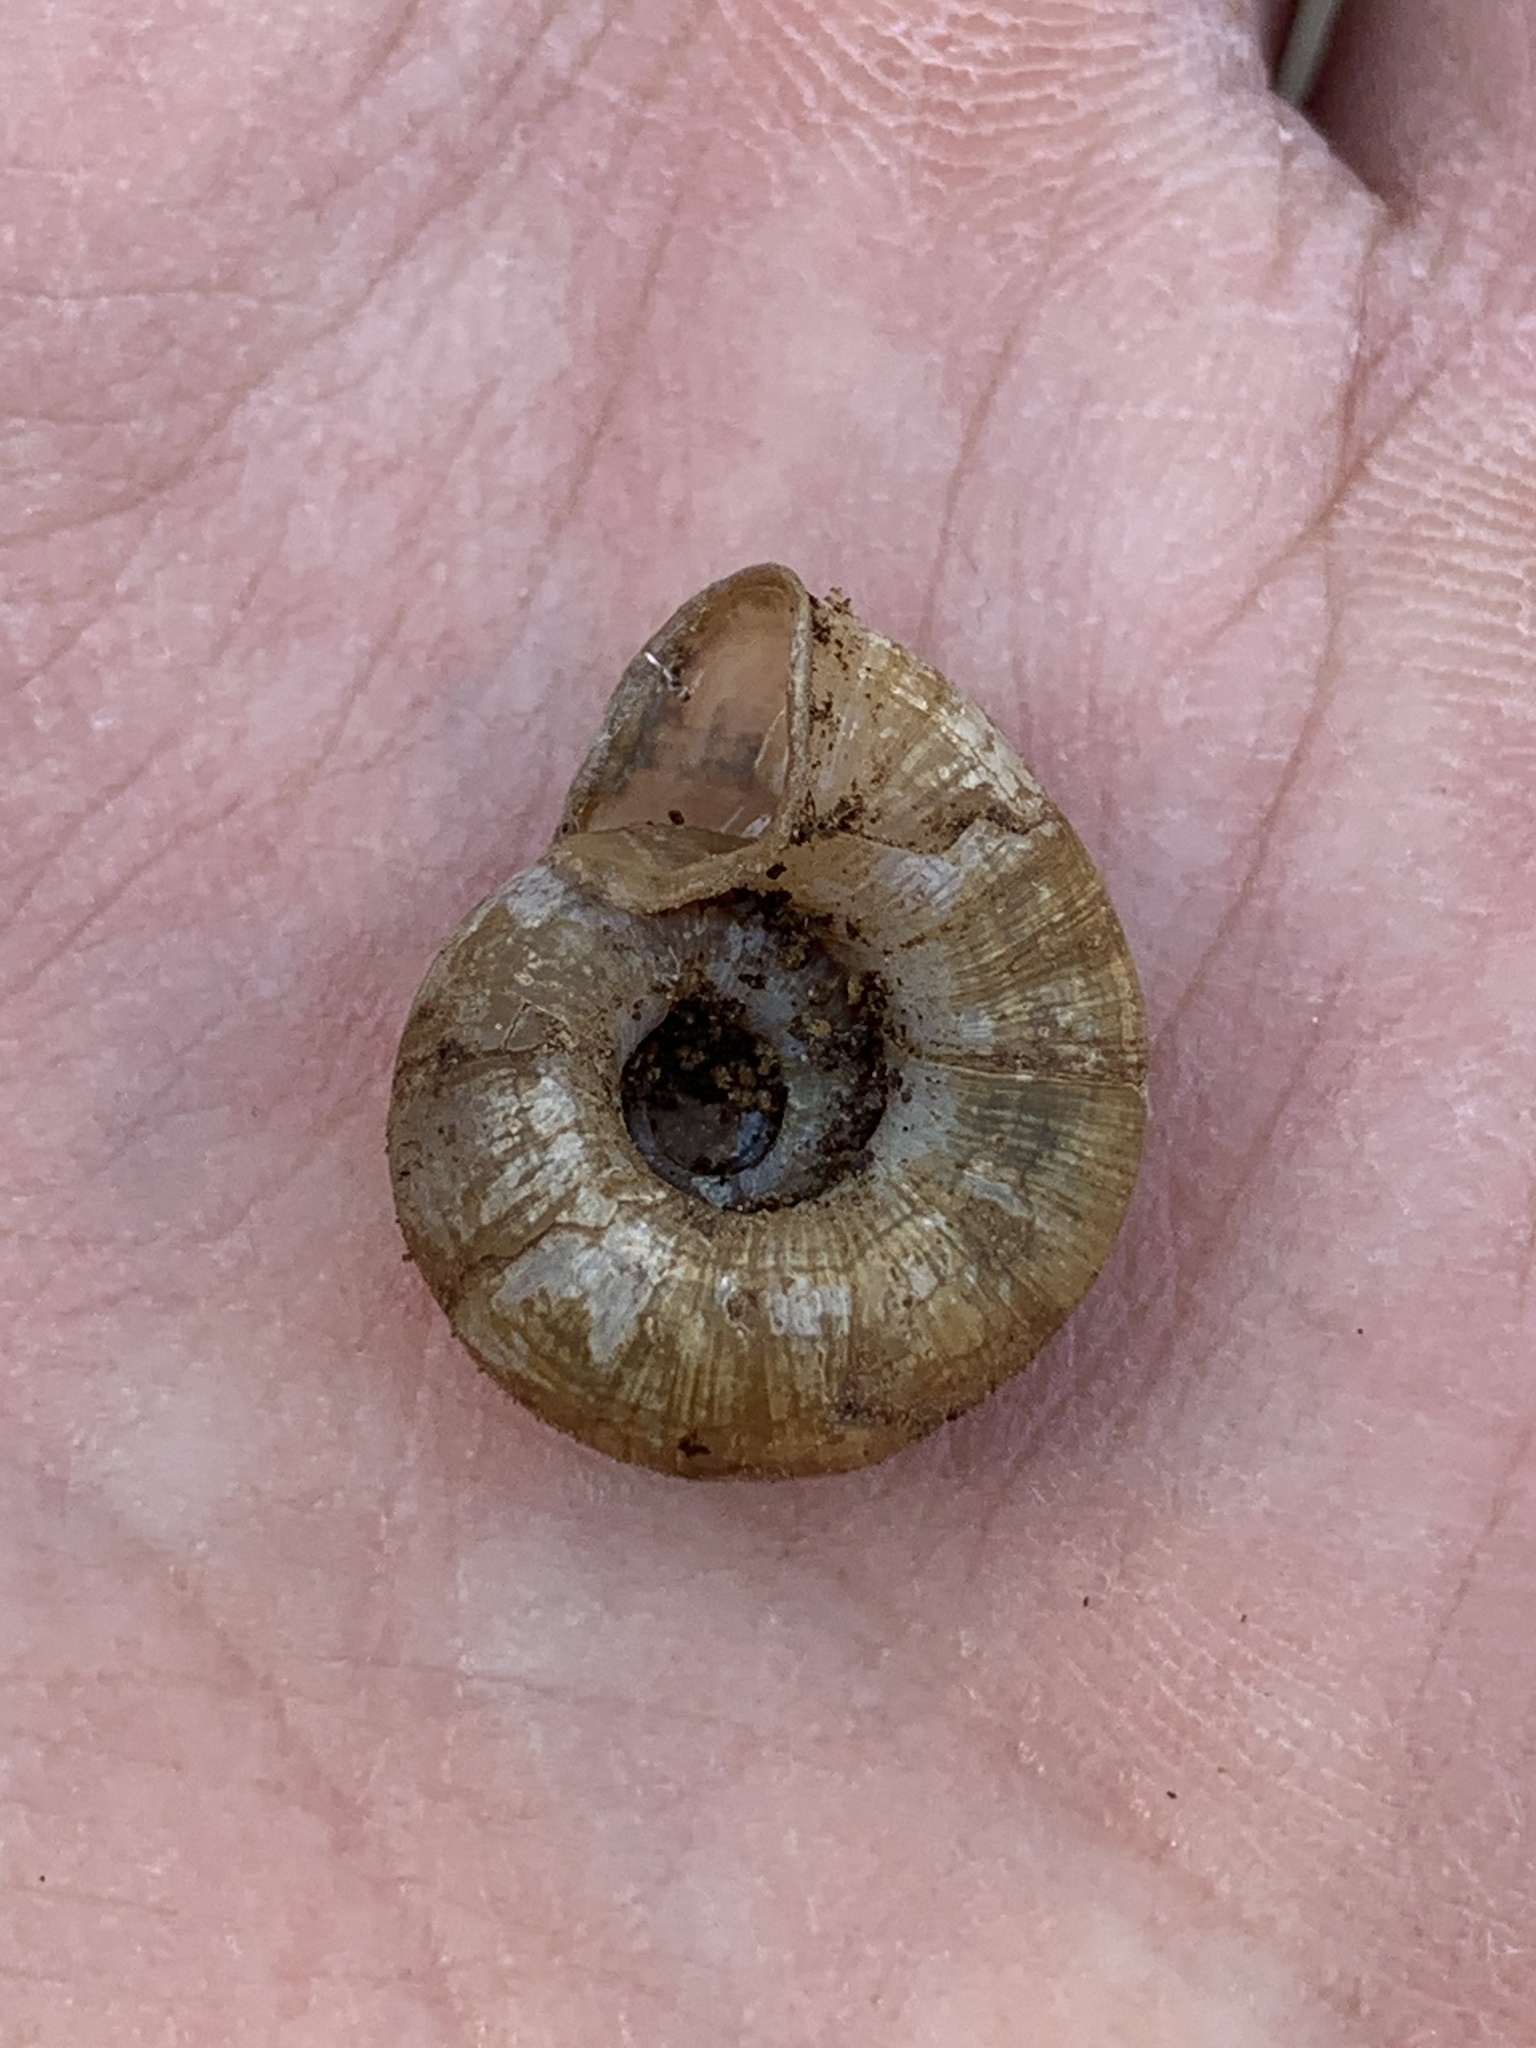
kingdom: Animalia
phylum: Mollusca
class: Gastropoda
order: Stylommatophora
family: Haplotrematidae
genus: Haplotrema
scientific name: Haplotrema concavum
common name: Gray-foot lancetooth
